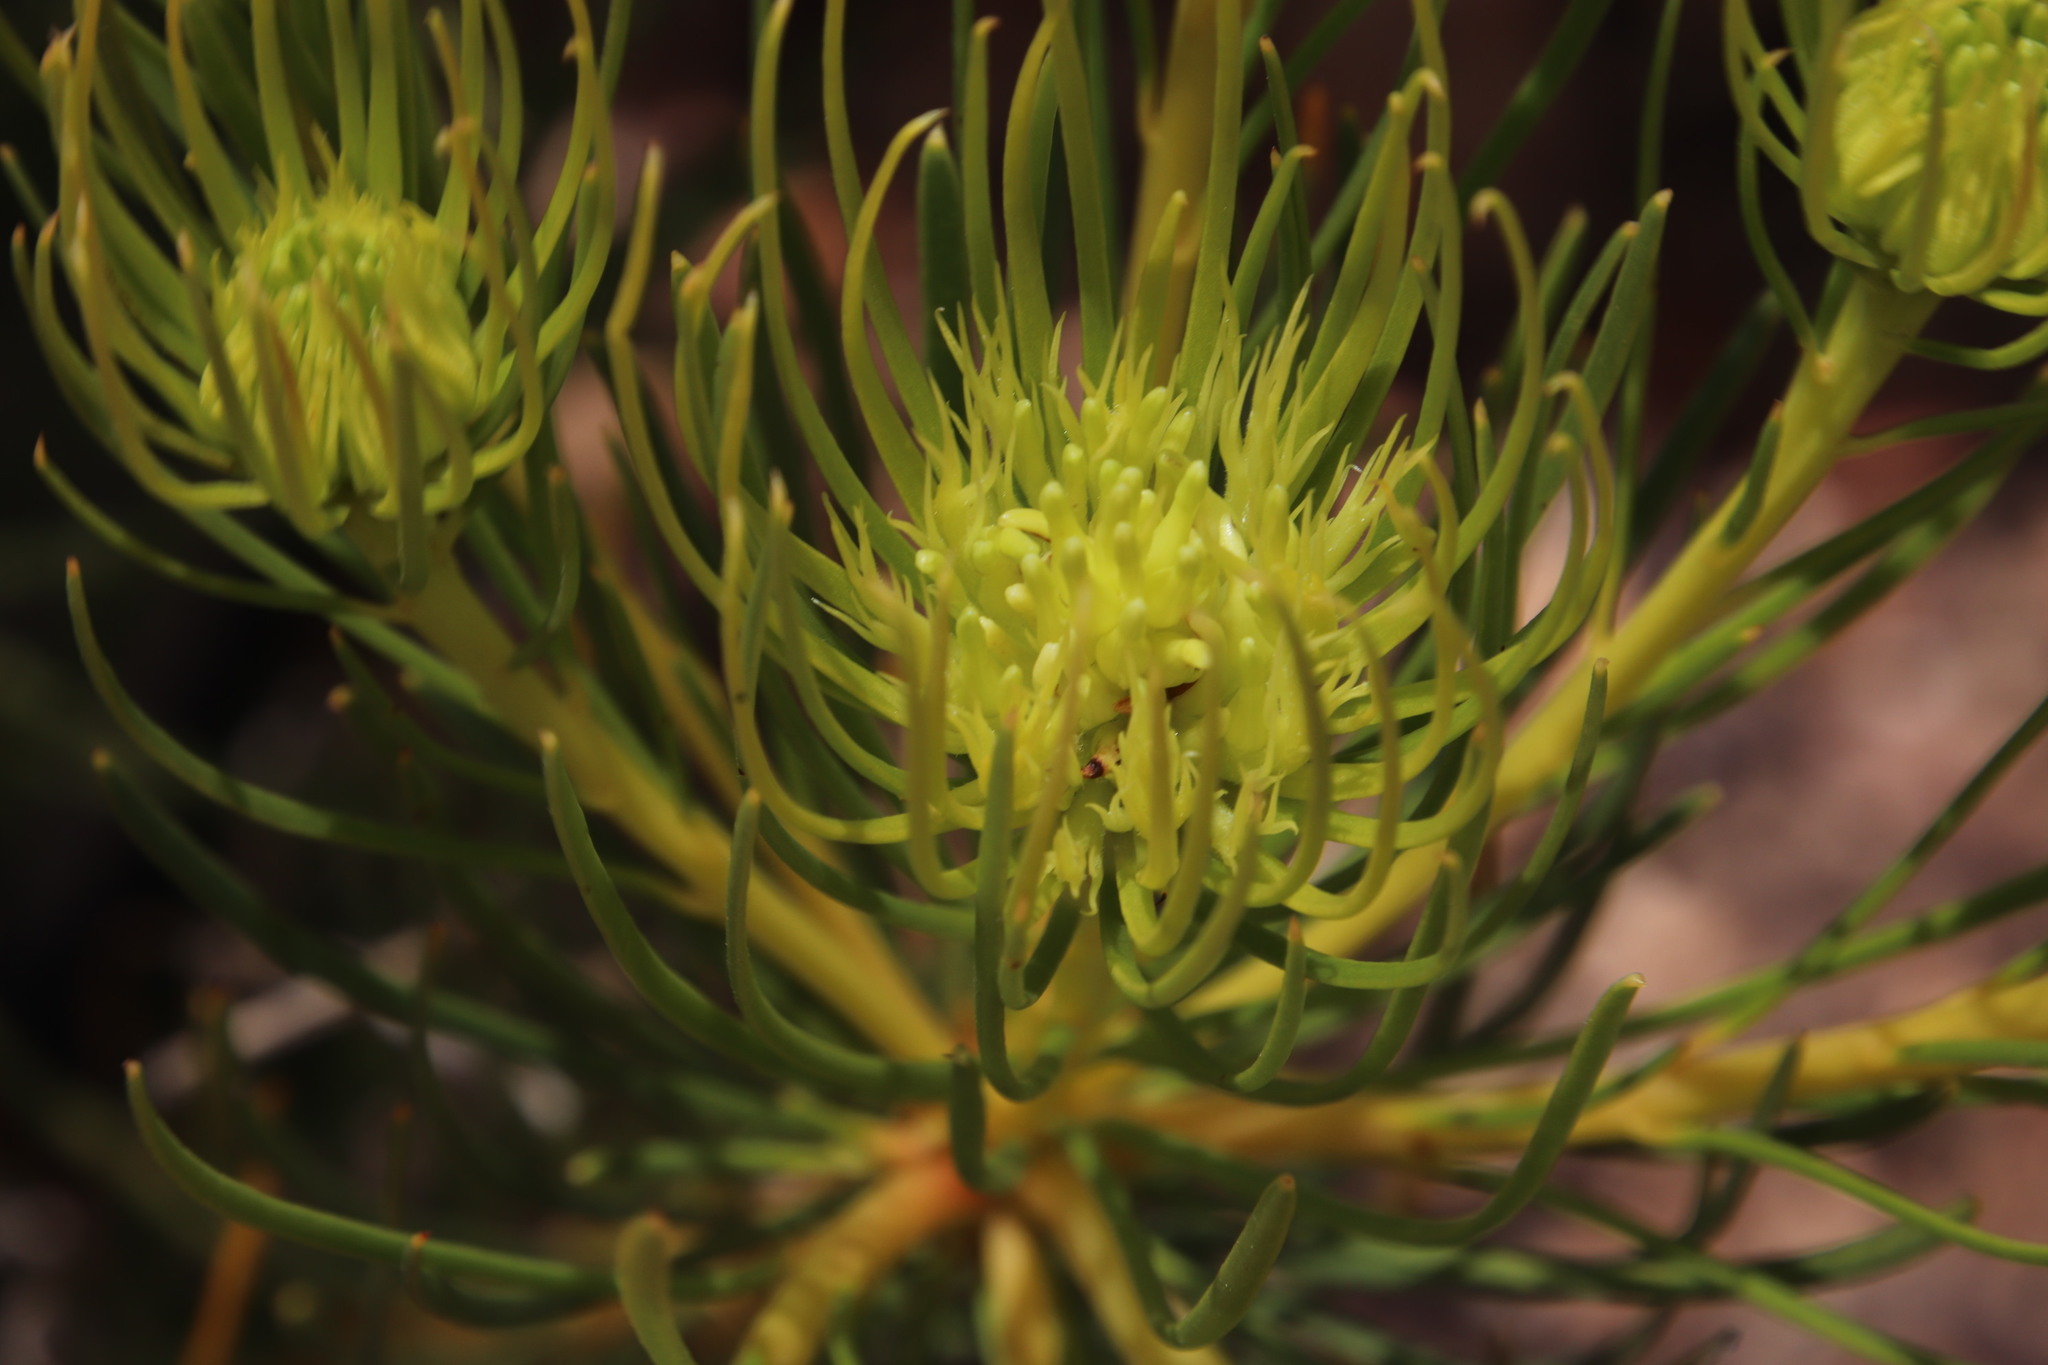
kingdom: Plantae
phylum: Tracheophyta
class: Magnoliopsida
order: Proteales
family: Proteaceae
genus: Aulax
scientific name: Aulax pallasia
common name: Needle-leaf featherbush
